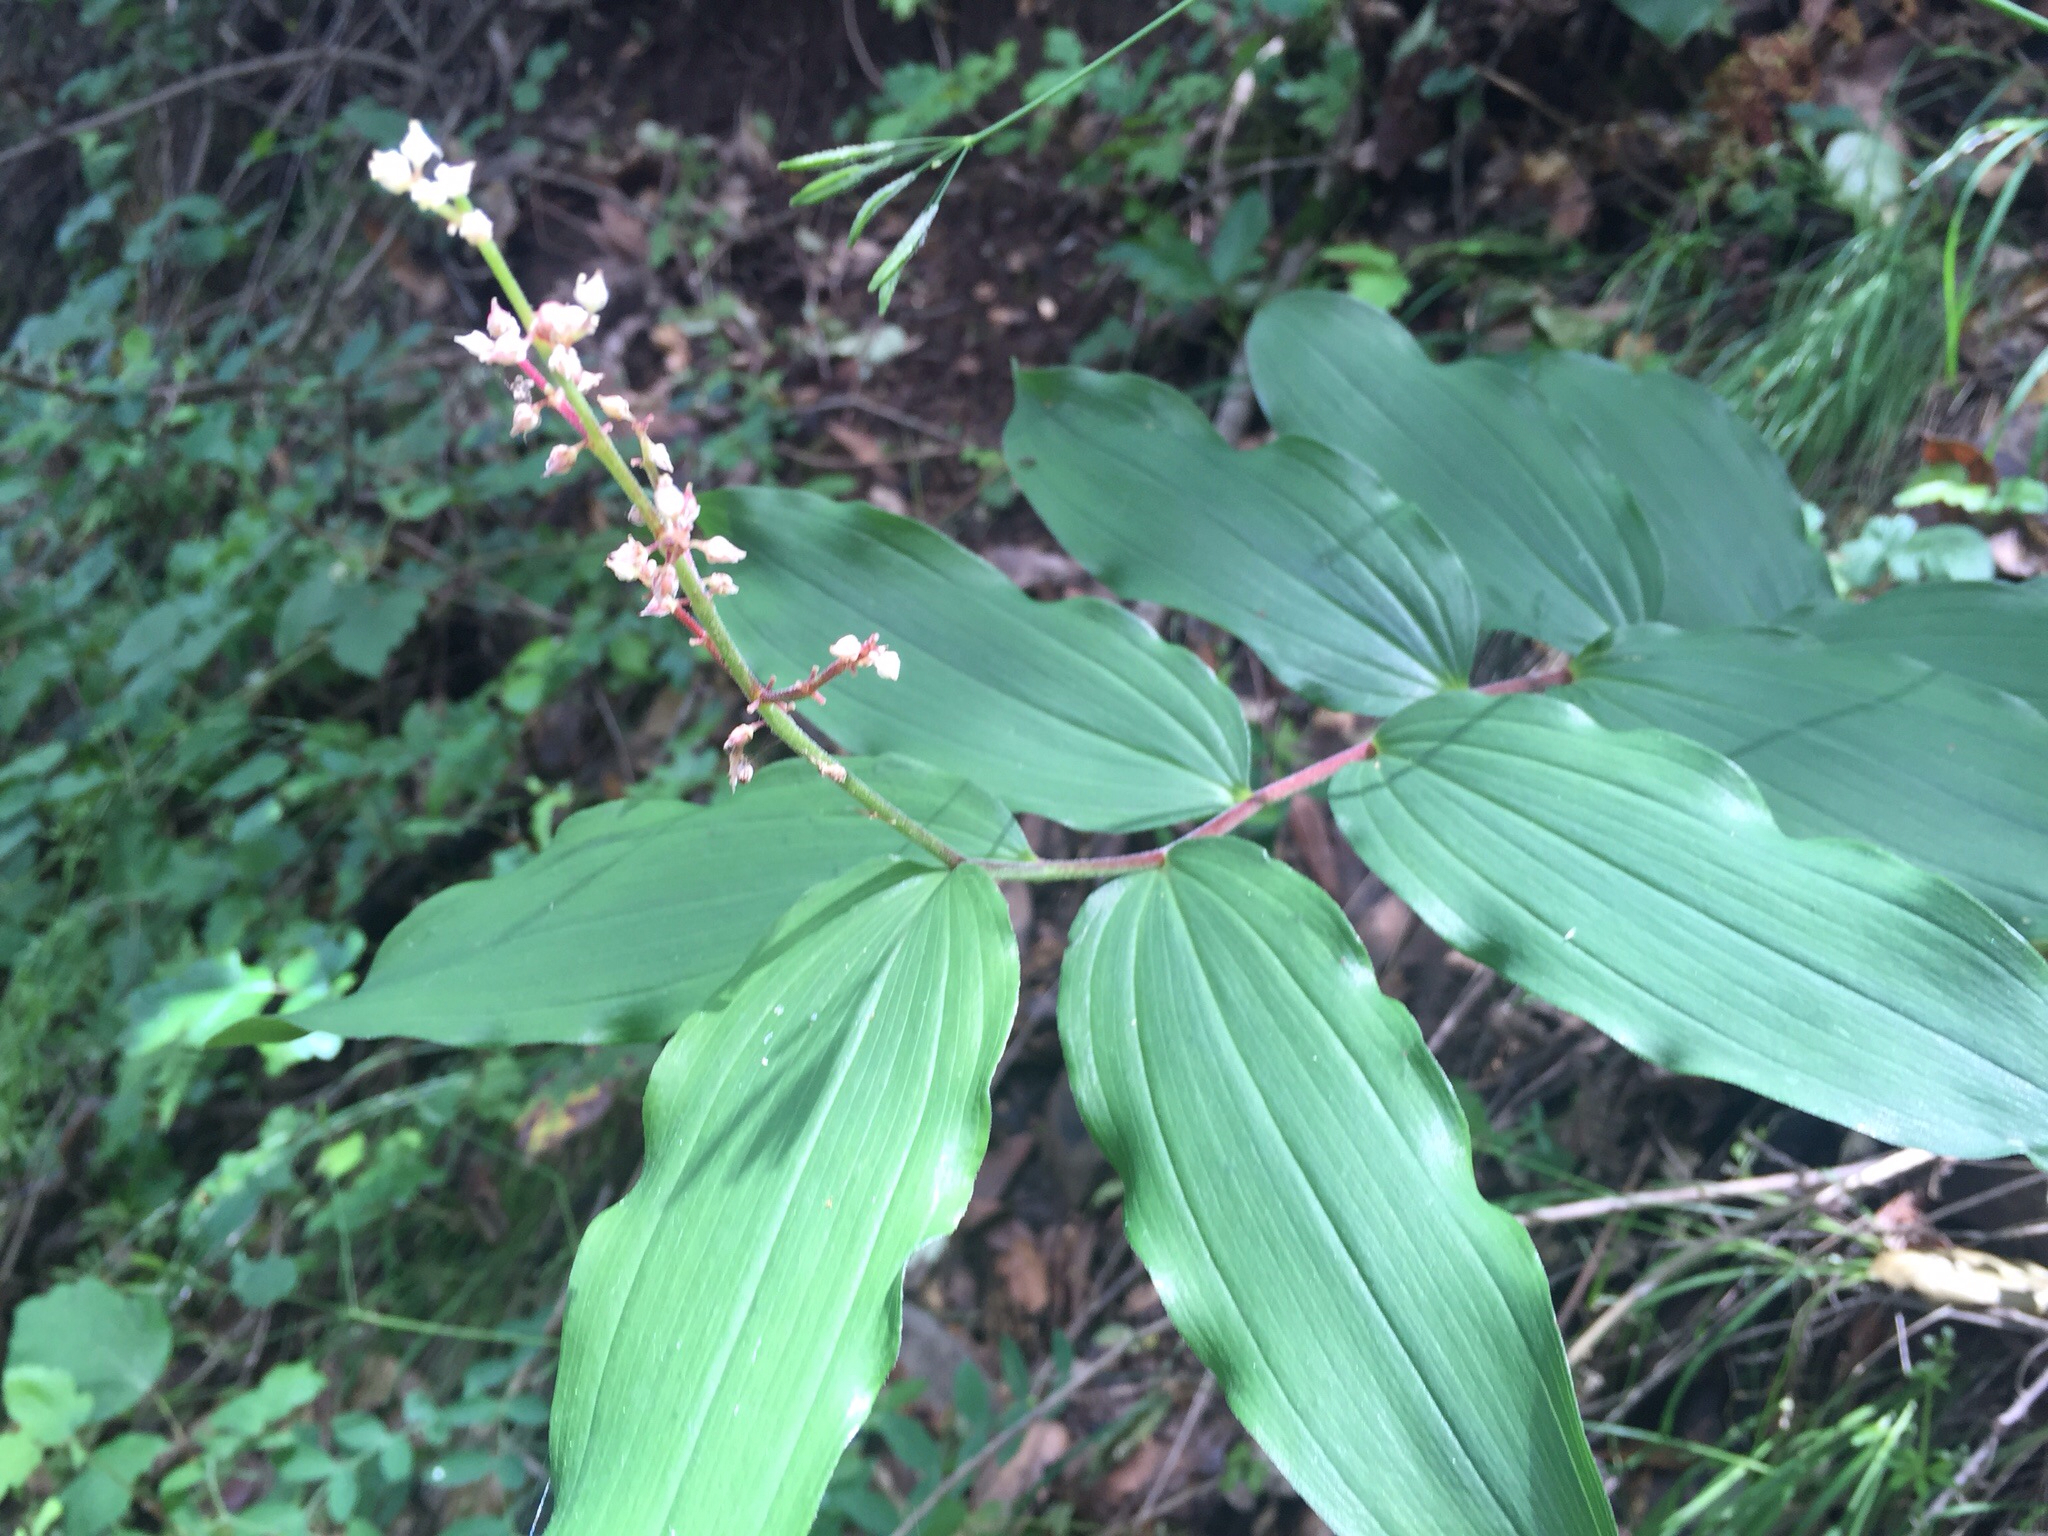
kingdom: Plantae
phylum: Tracheophyta
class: Liliopsida
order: Asparagales
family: Asparagaceae
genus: Maianthemum
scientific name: Maianthemum racemosum
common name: False spikenard
